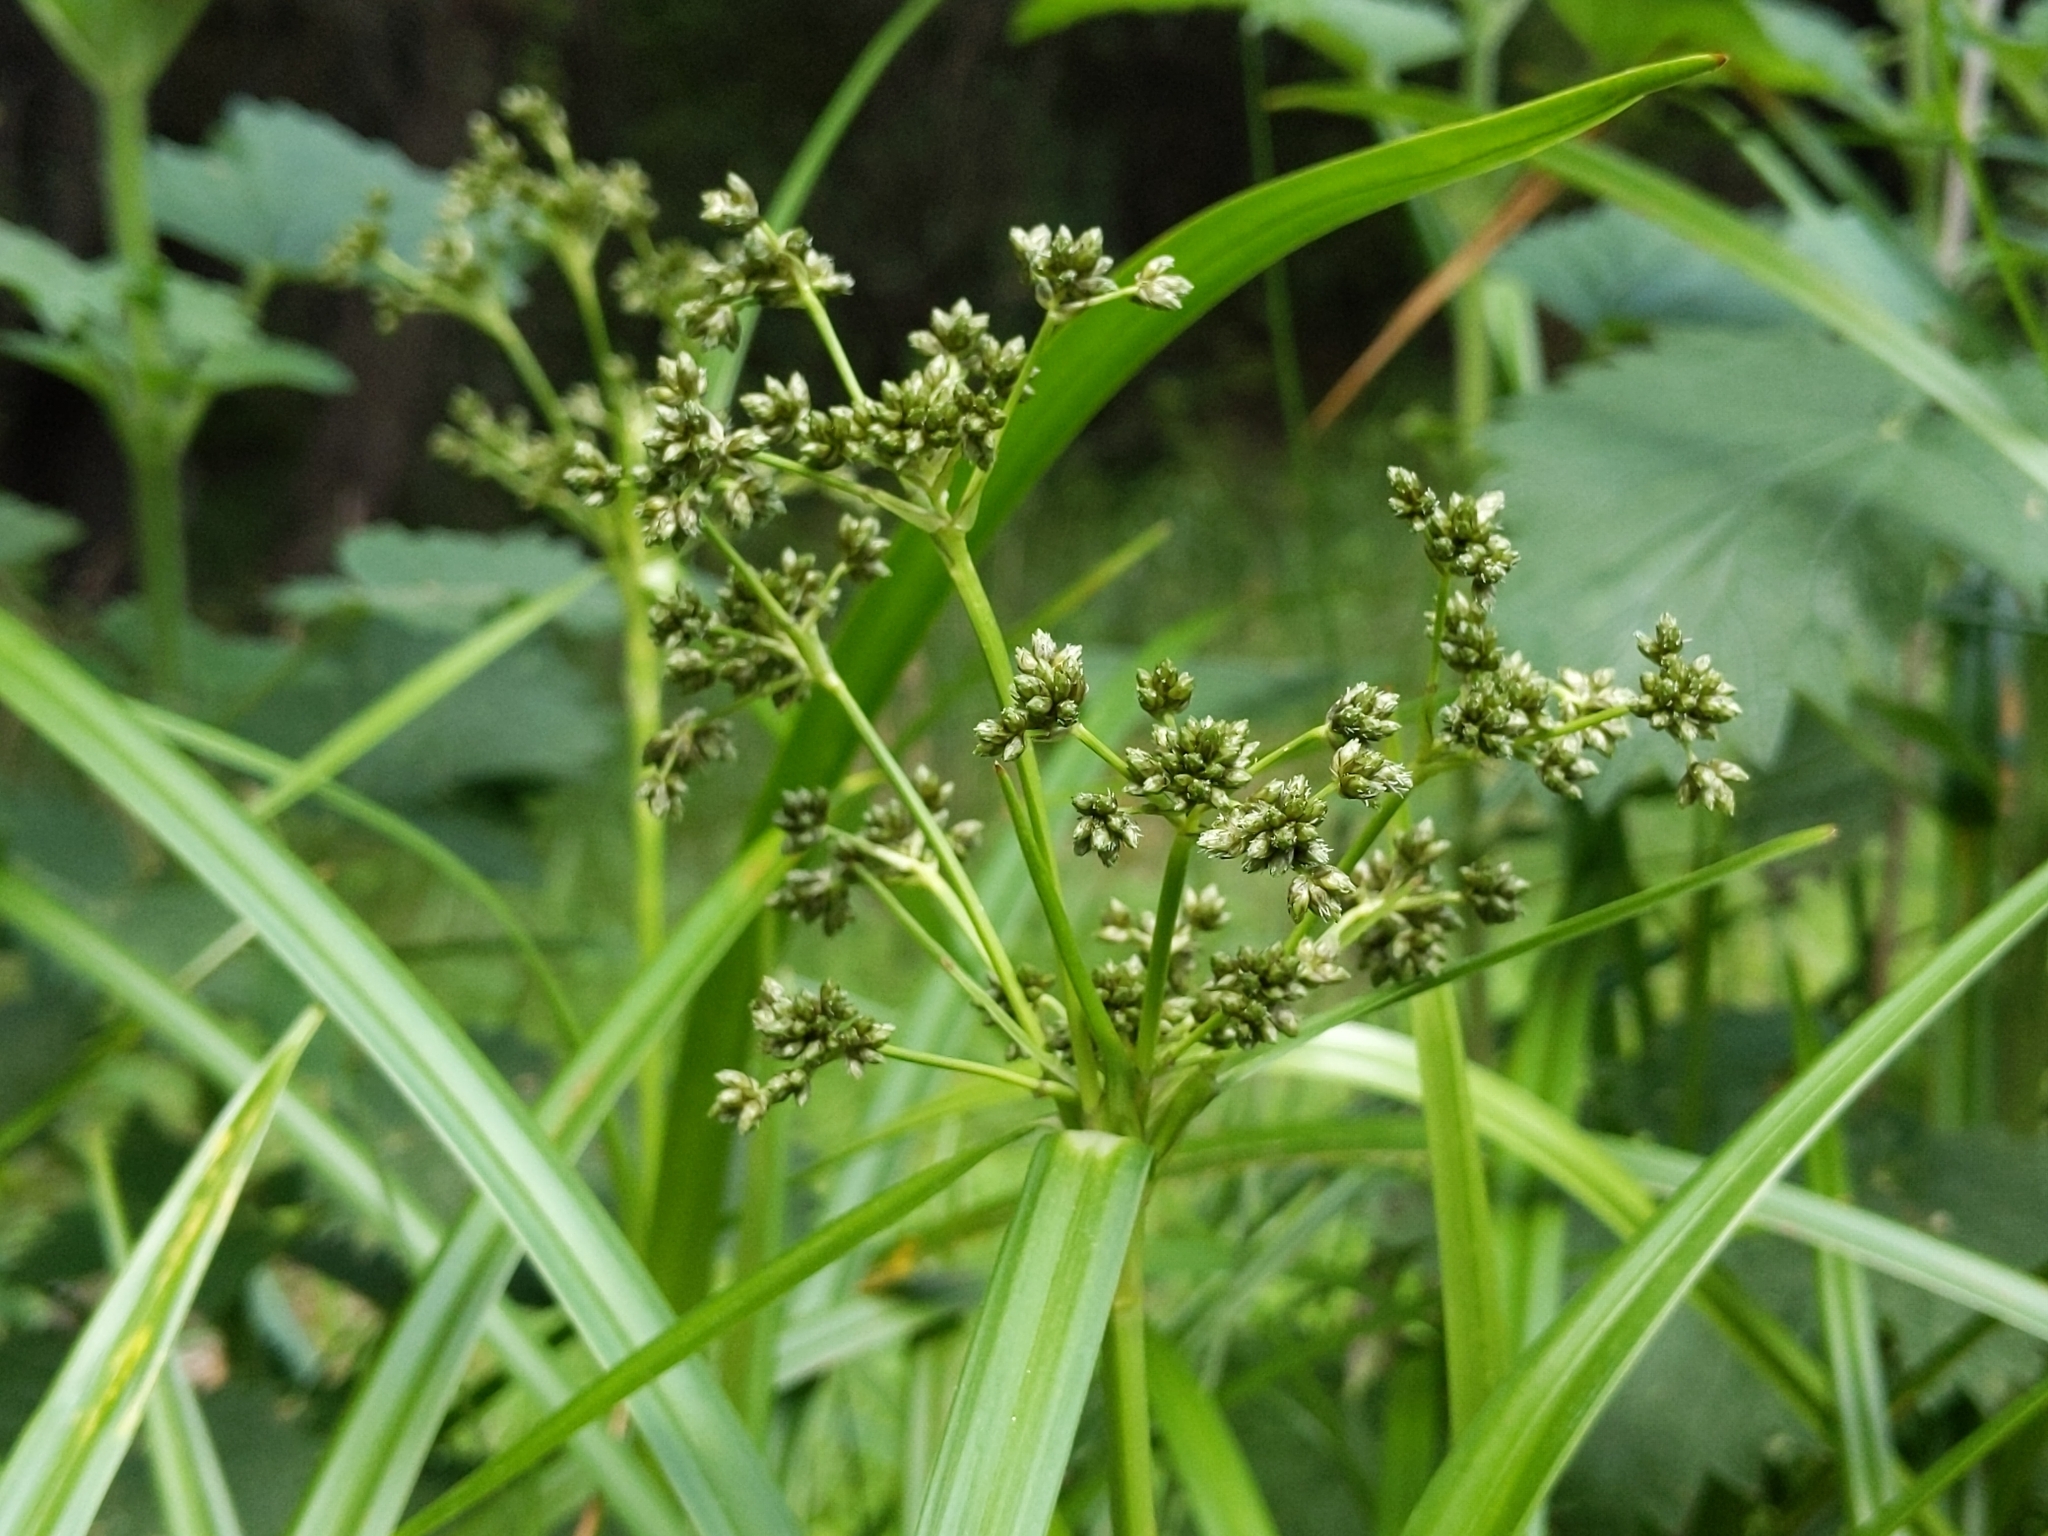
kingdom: Plantae
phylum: Tracheophyta
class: Liliopsida
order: Poales
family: Cyperaceae
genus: Scirpus
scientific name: Scirpus microcarpus
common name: Panicled bulrush
